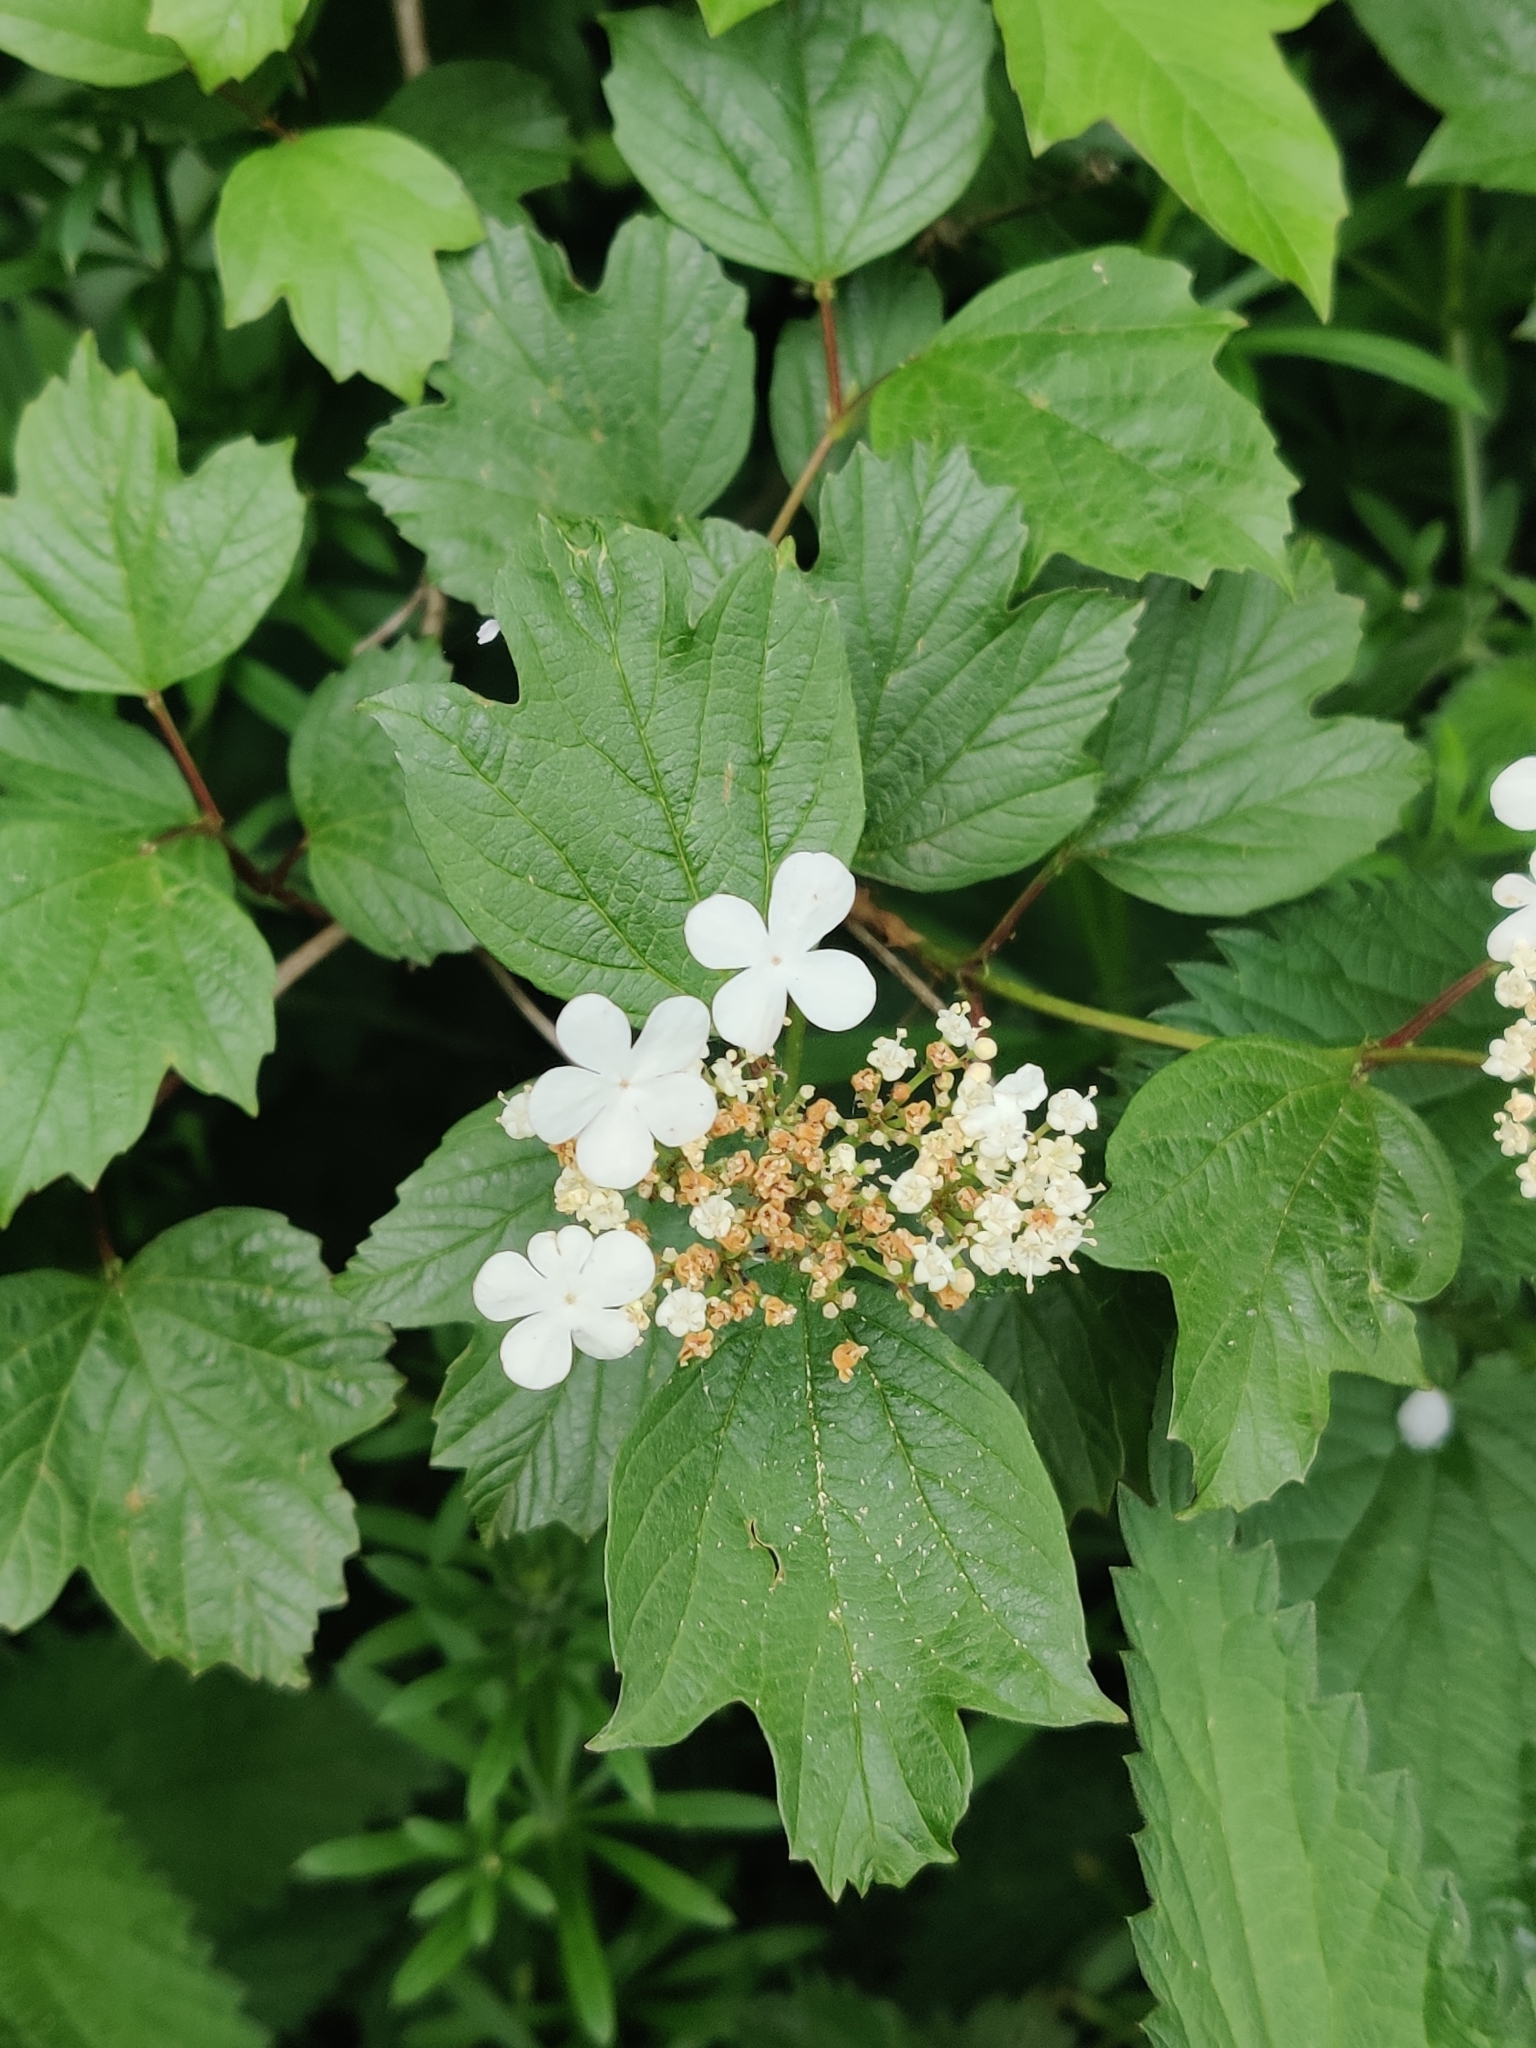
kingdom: Plantae
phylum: Tracheophyta
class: Magnoliopsida
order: Dipsacales
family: Viburnaceae
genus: Viburnum
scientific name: Viburnum opulus
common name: Guelder-rose
